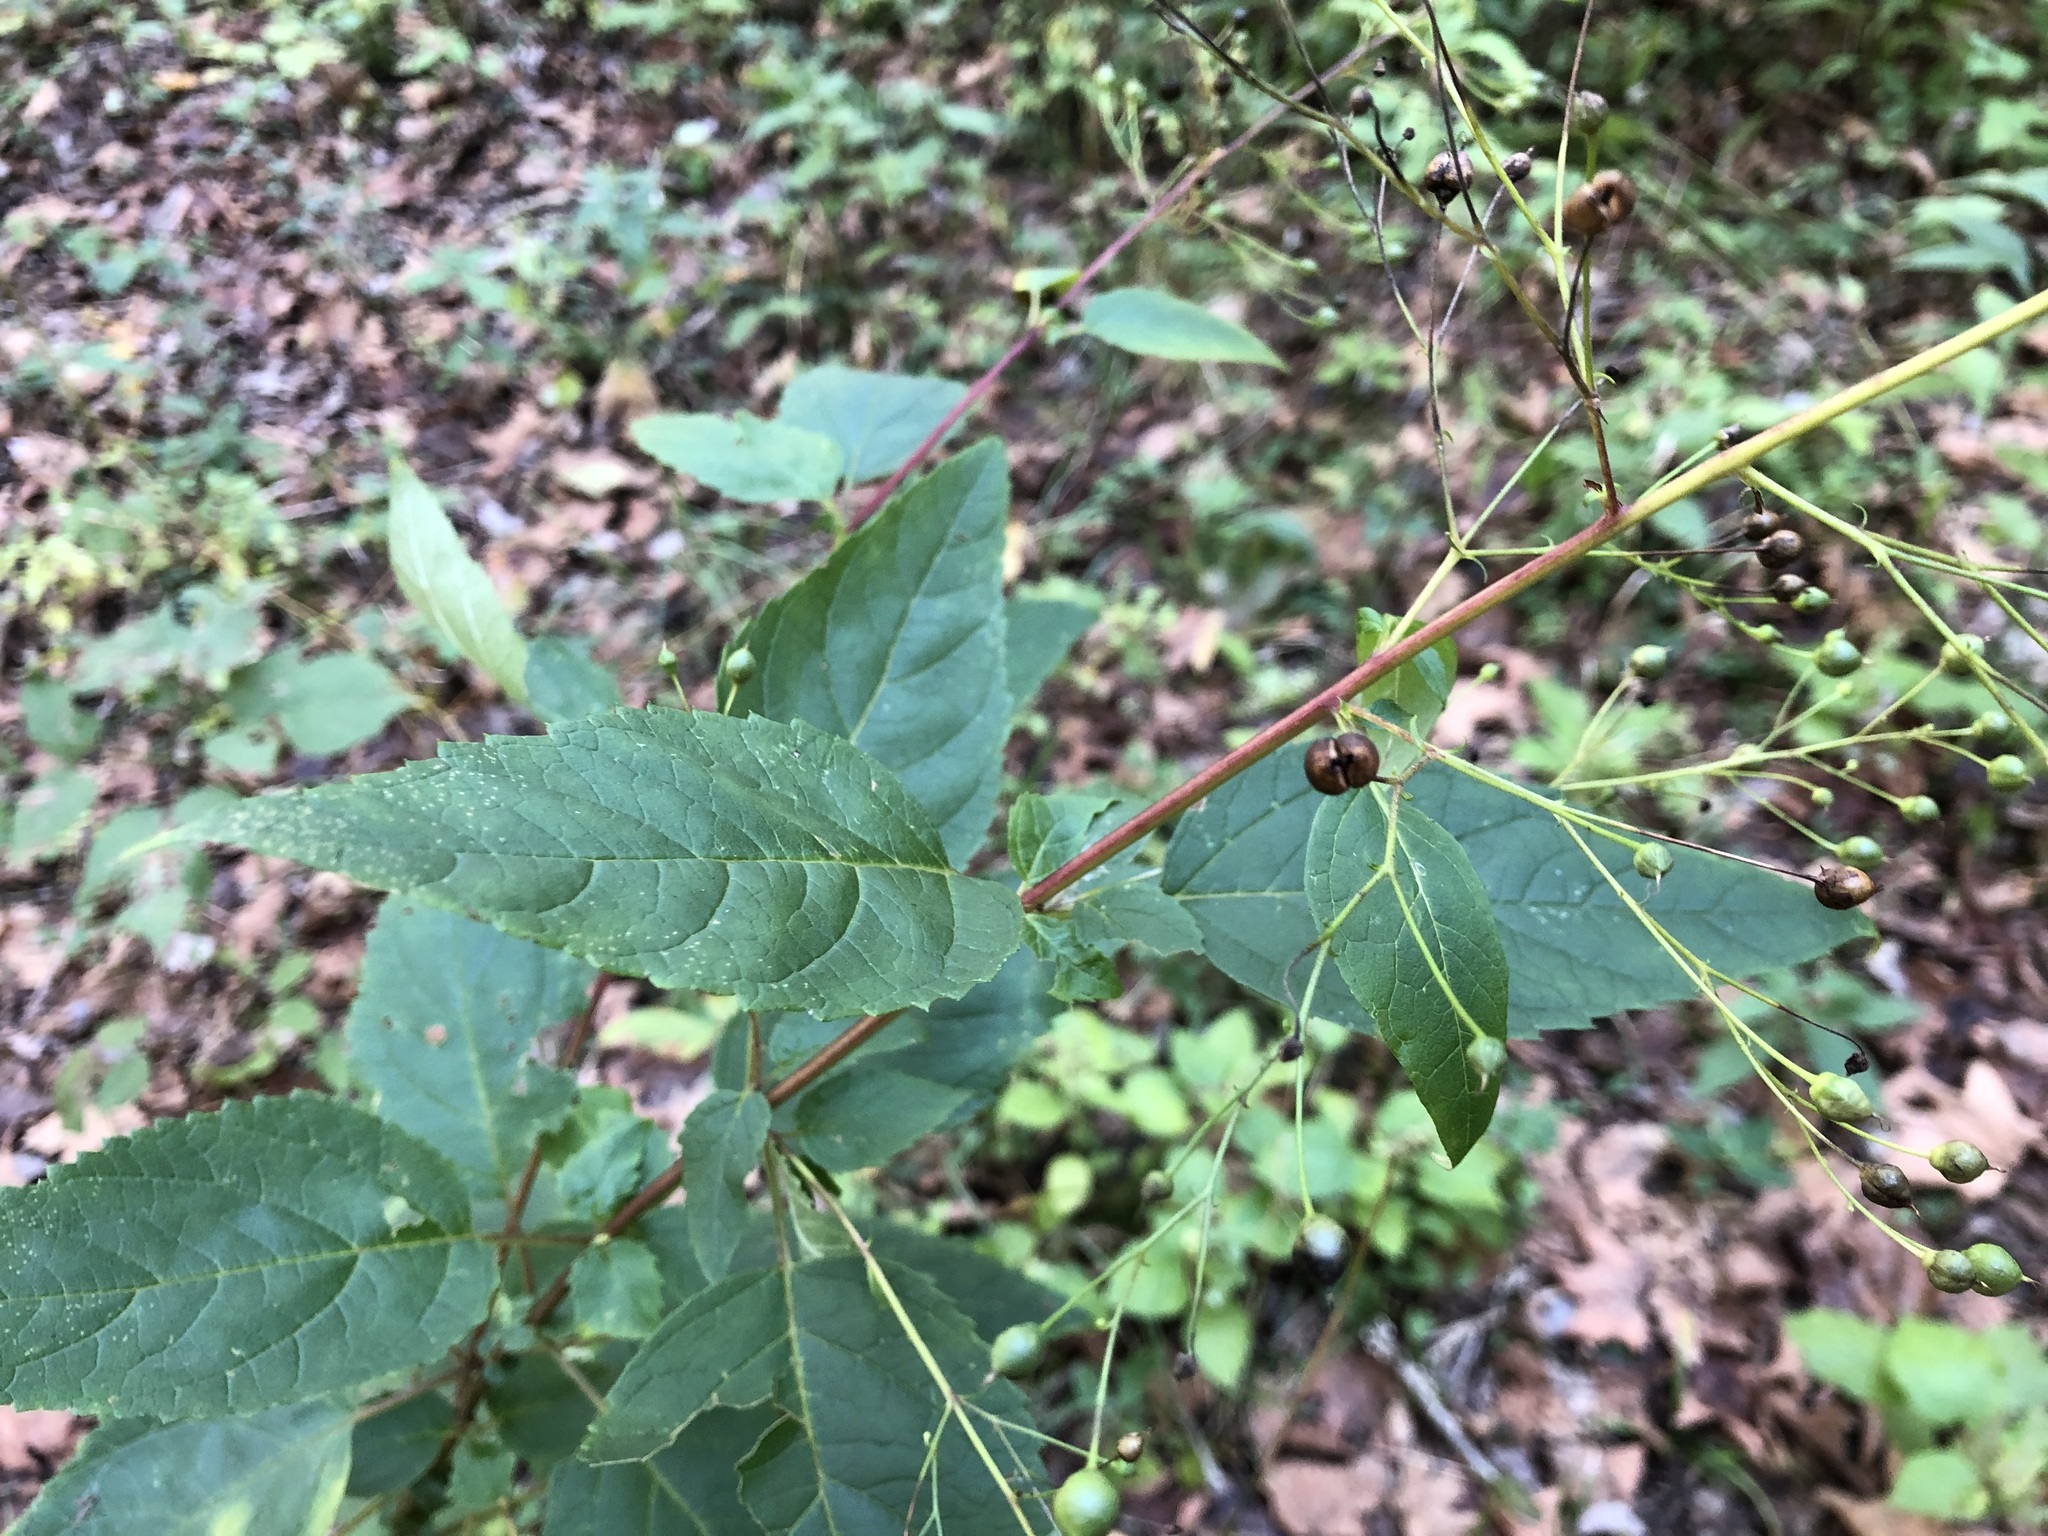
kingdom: Plantae
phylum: Tracheophyta
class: Magnoliopsida
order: Lamiales
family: Scrophulariaceae
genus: Scrophularia
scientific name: Scrophularia marilandica
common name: Eastern figwort
